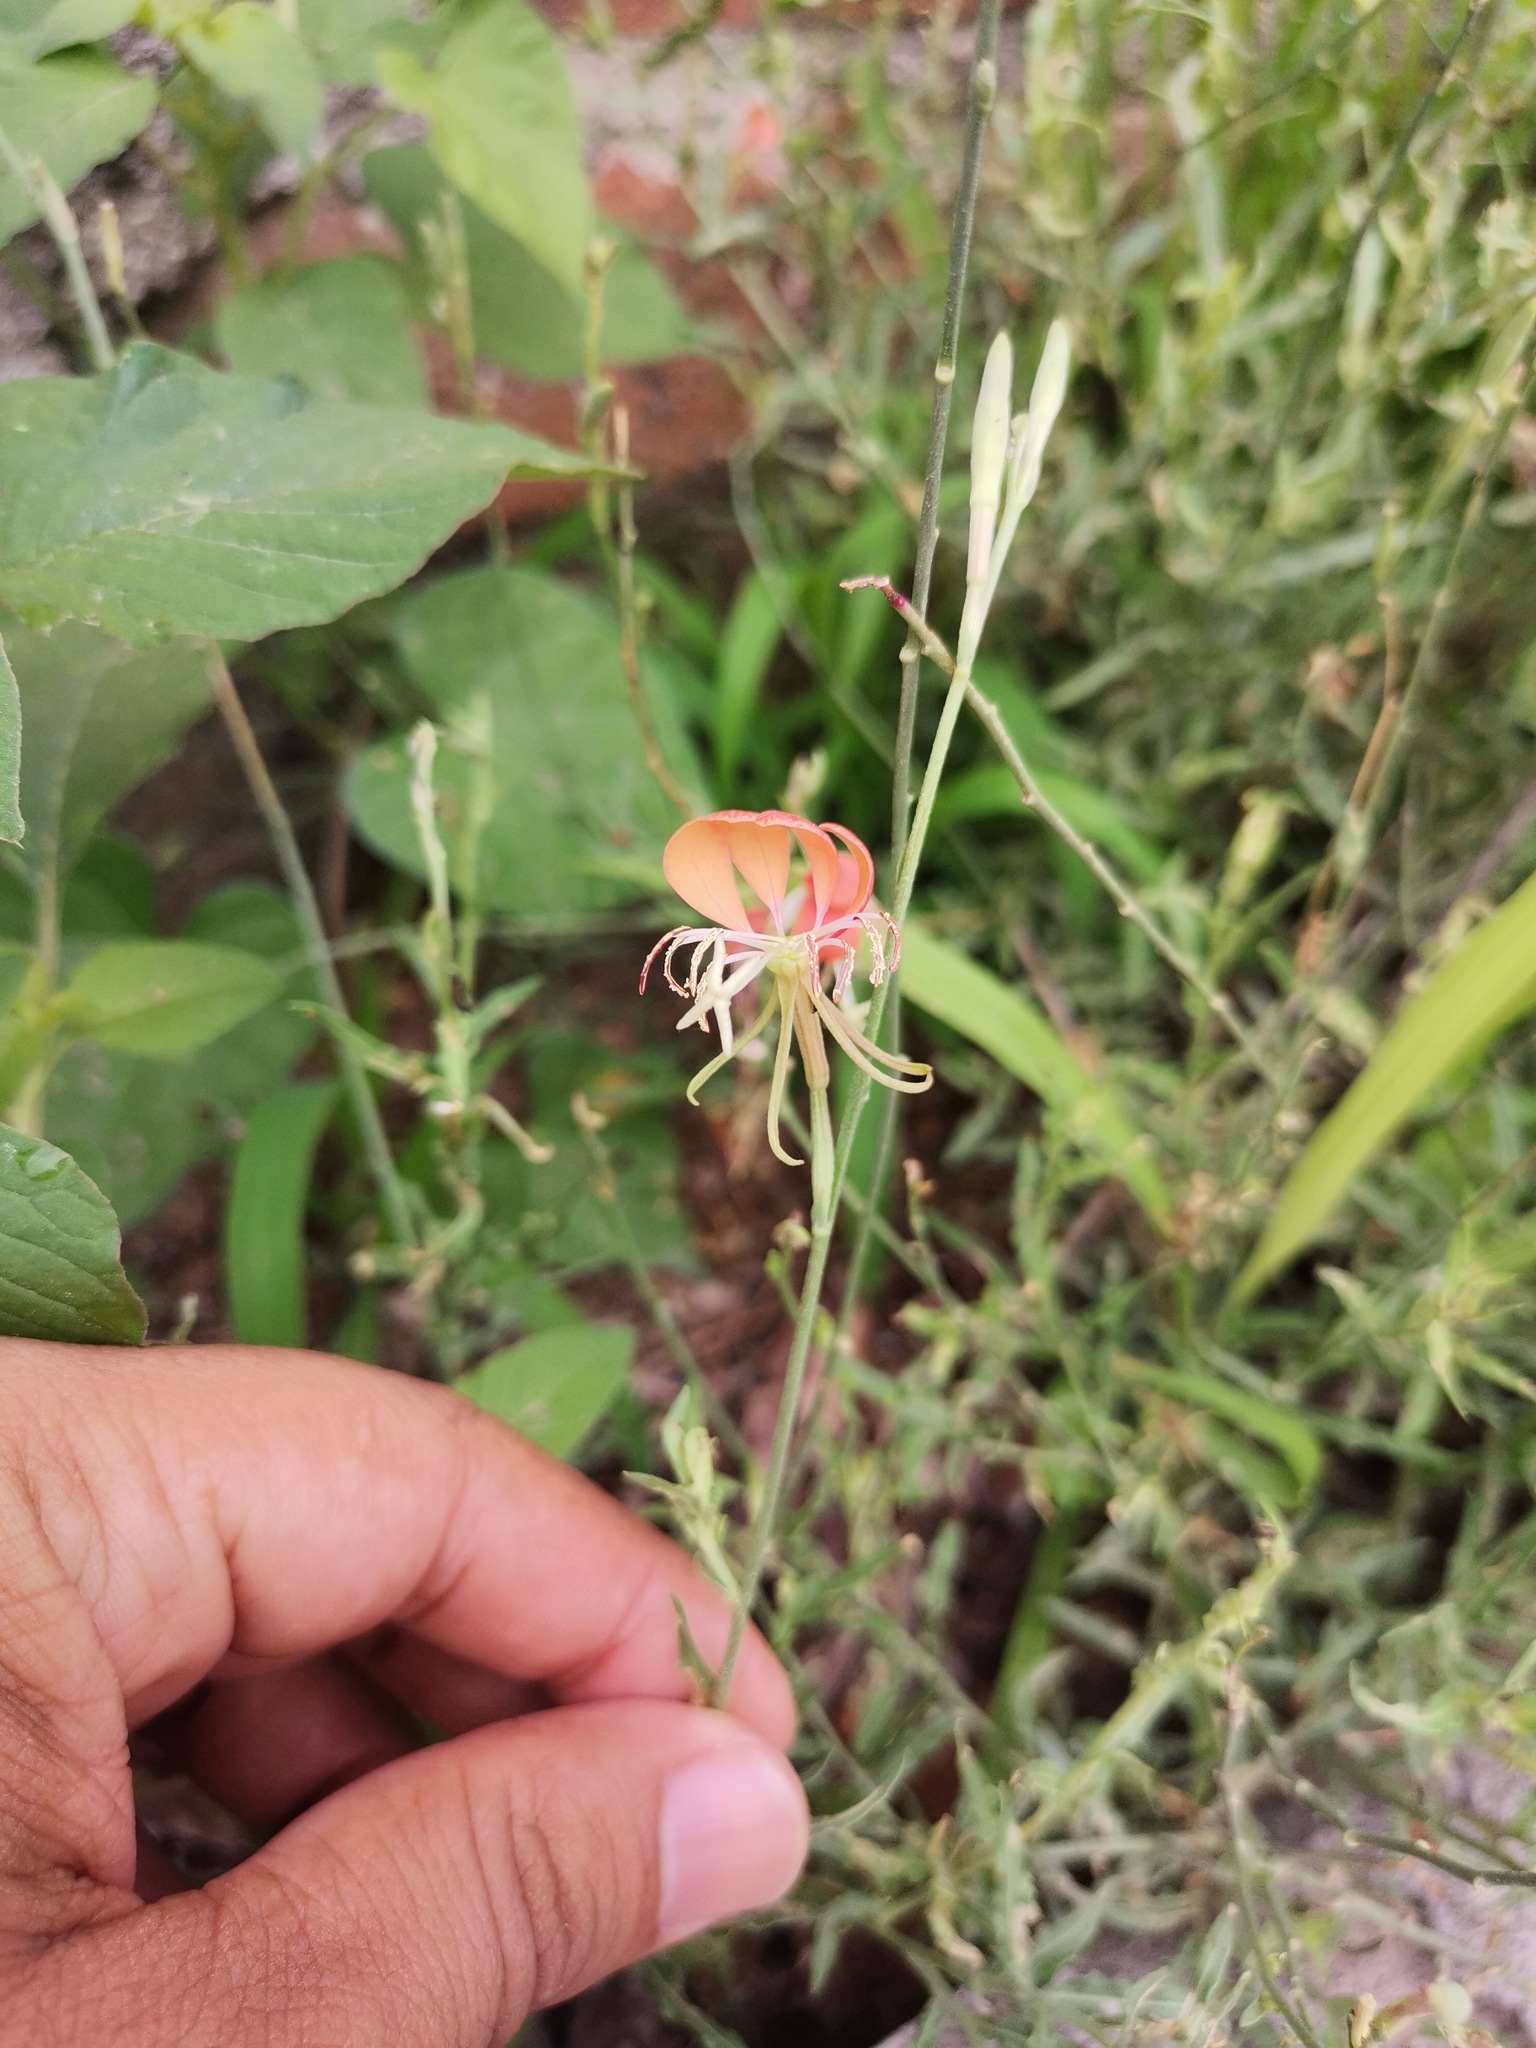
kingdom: Plantae
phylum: Tracheophyta
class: Magnoliopsida
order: Myrtales
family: Onagraceae
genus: Oenothera
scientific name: Oenothera suffrutescens
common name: Scarlet beeblossom
